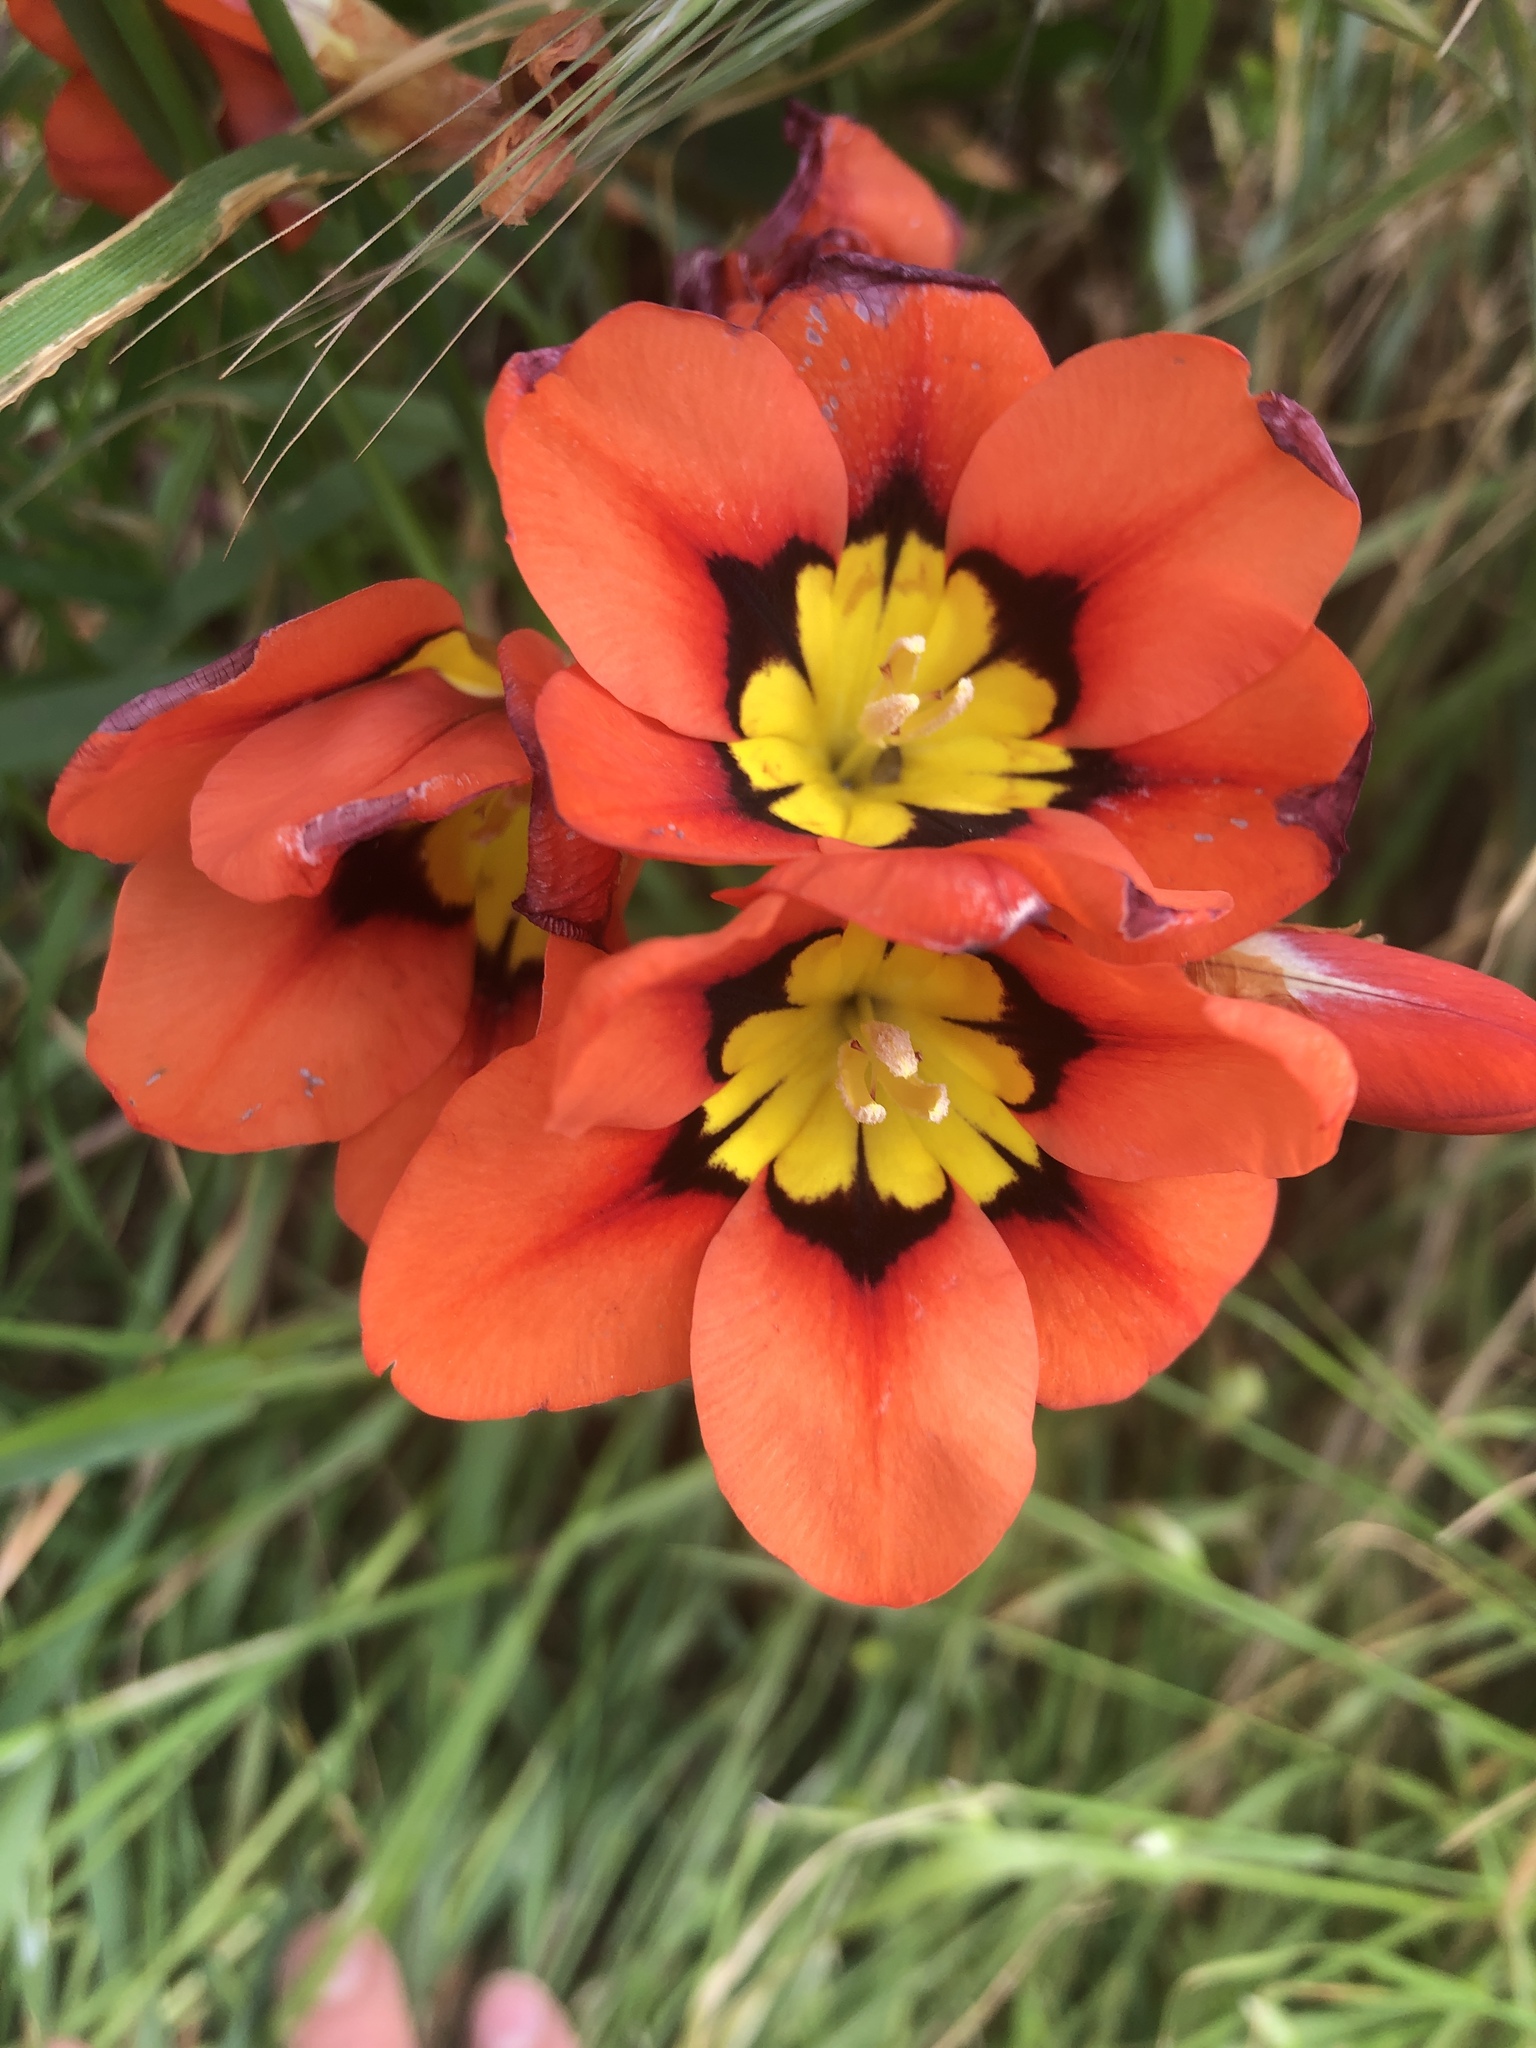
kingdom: Plantae
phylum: Tracheophyta
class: Liliopsida
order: Asparagales
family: Iridaceae
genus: Sparaxis
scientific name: Sparaxis tricolor
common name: Wandflower
